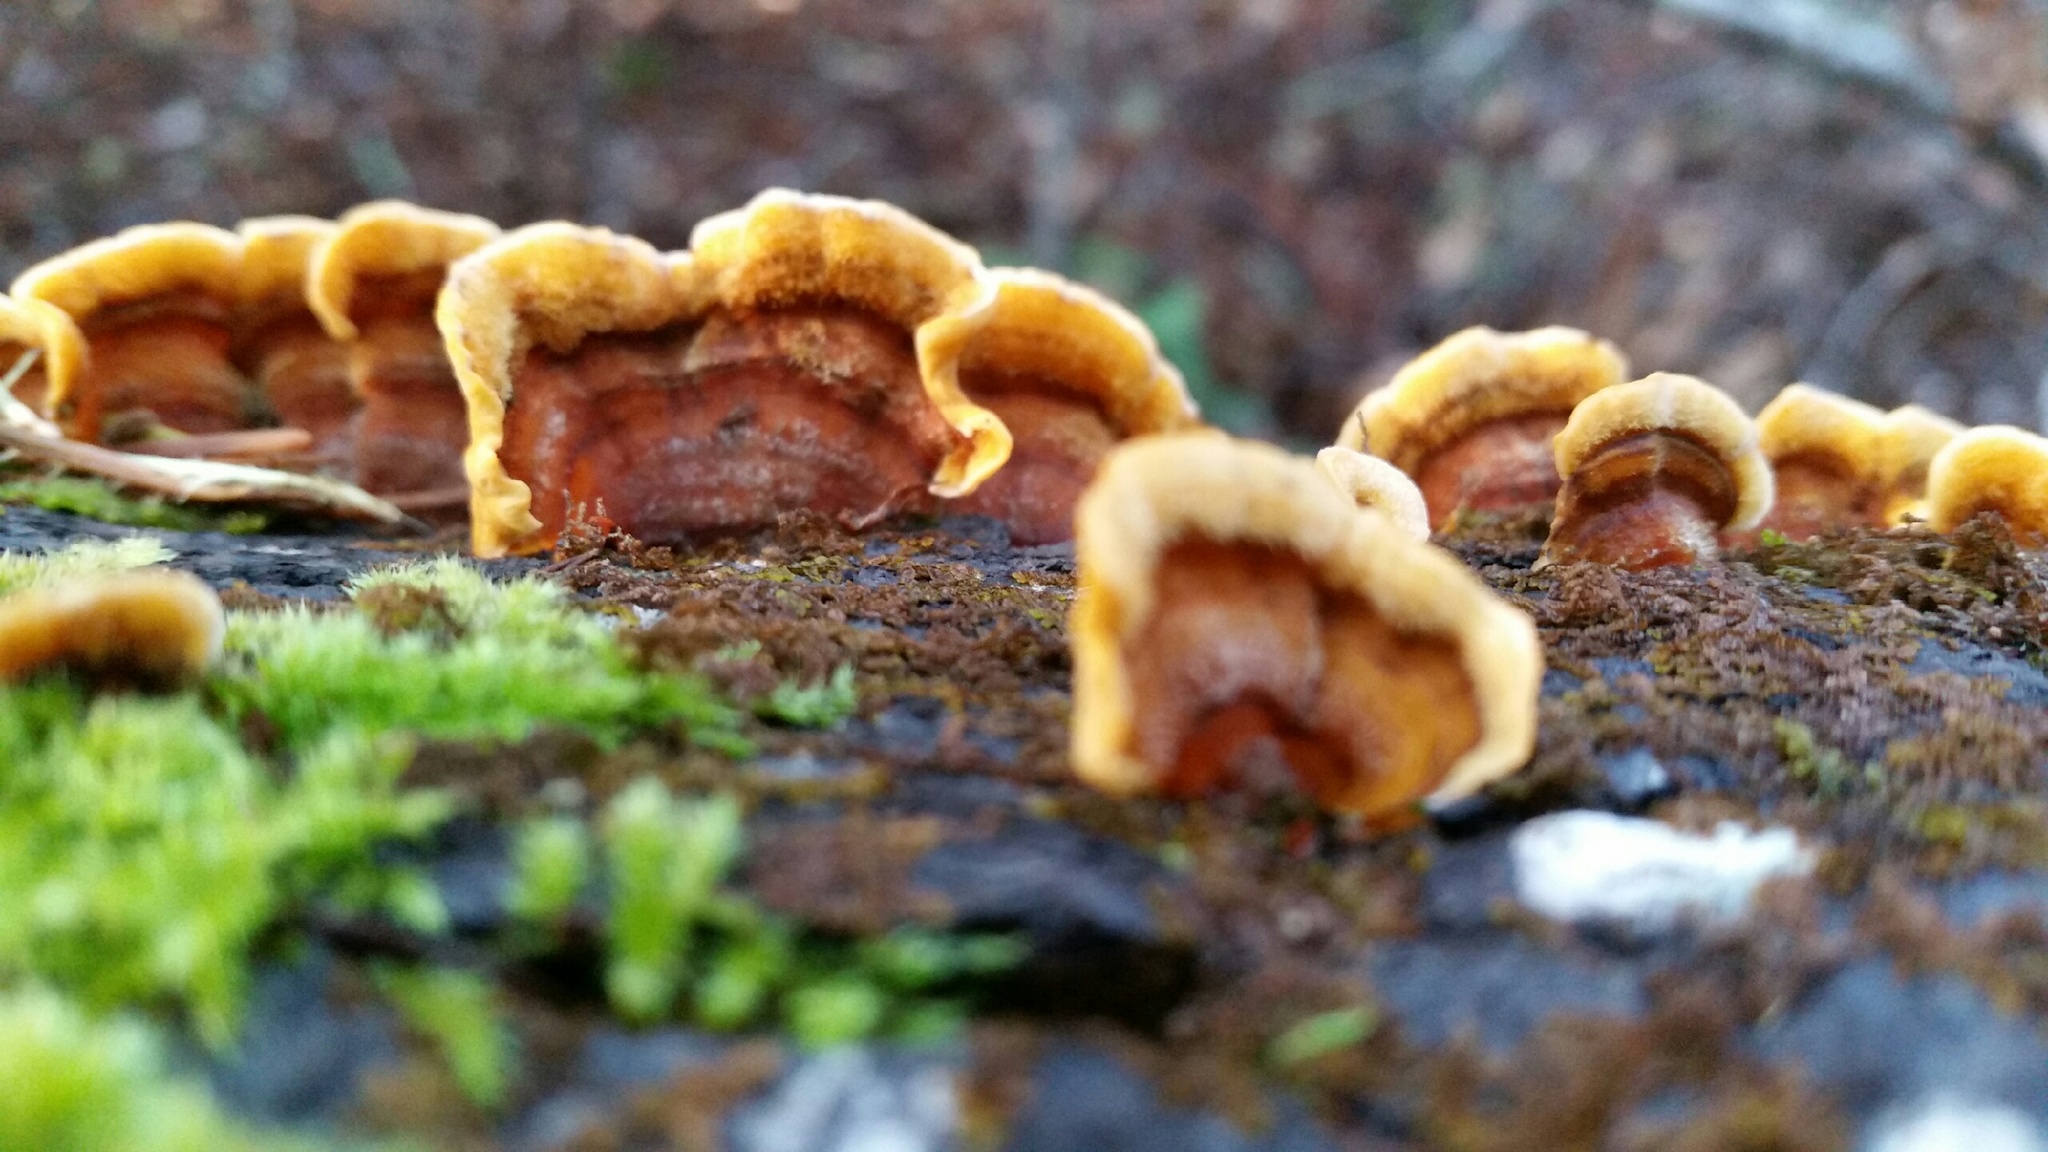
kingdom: Fungi
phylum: Basidiomycota
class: Agaricomycetes
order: Russulales
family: Stereaceae
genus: Stereum
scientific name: Stereum hirsutum
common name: Hairy curtain crust
